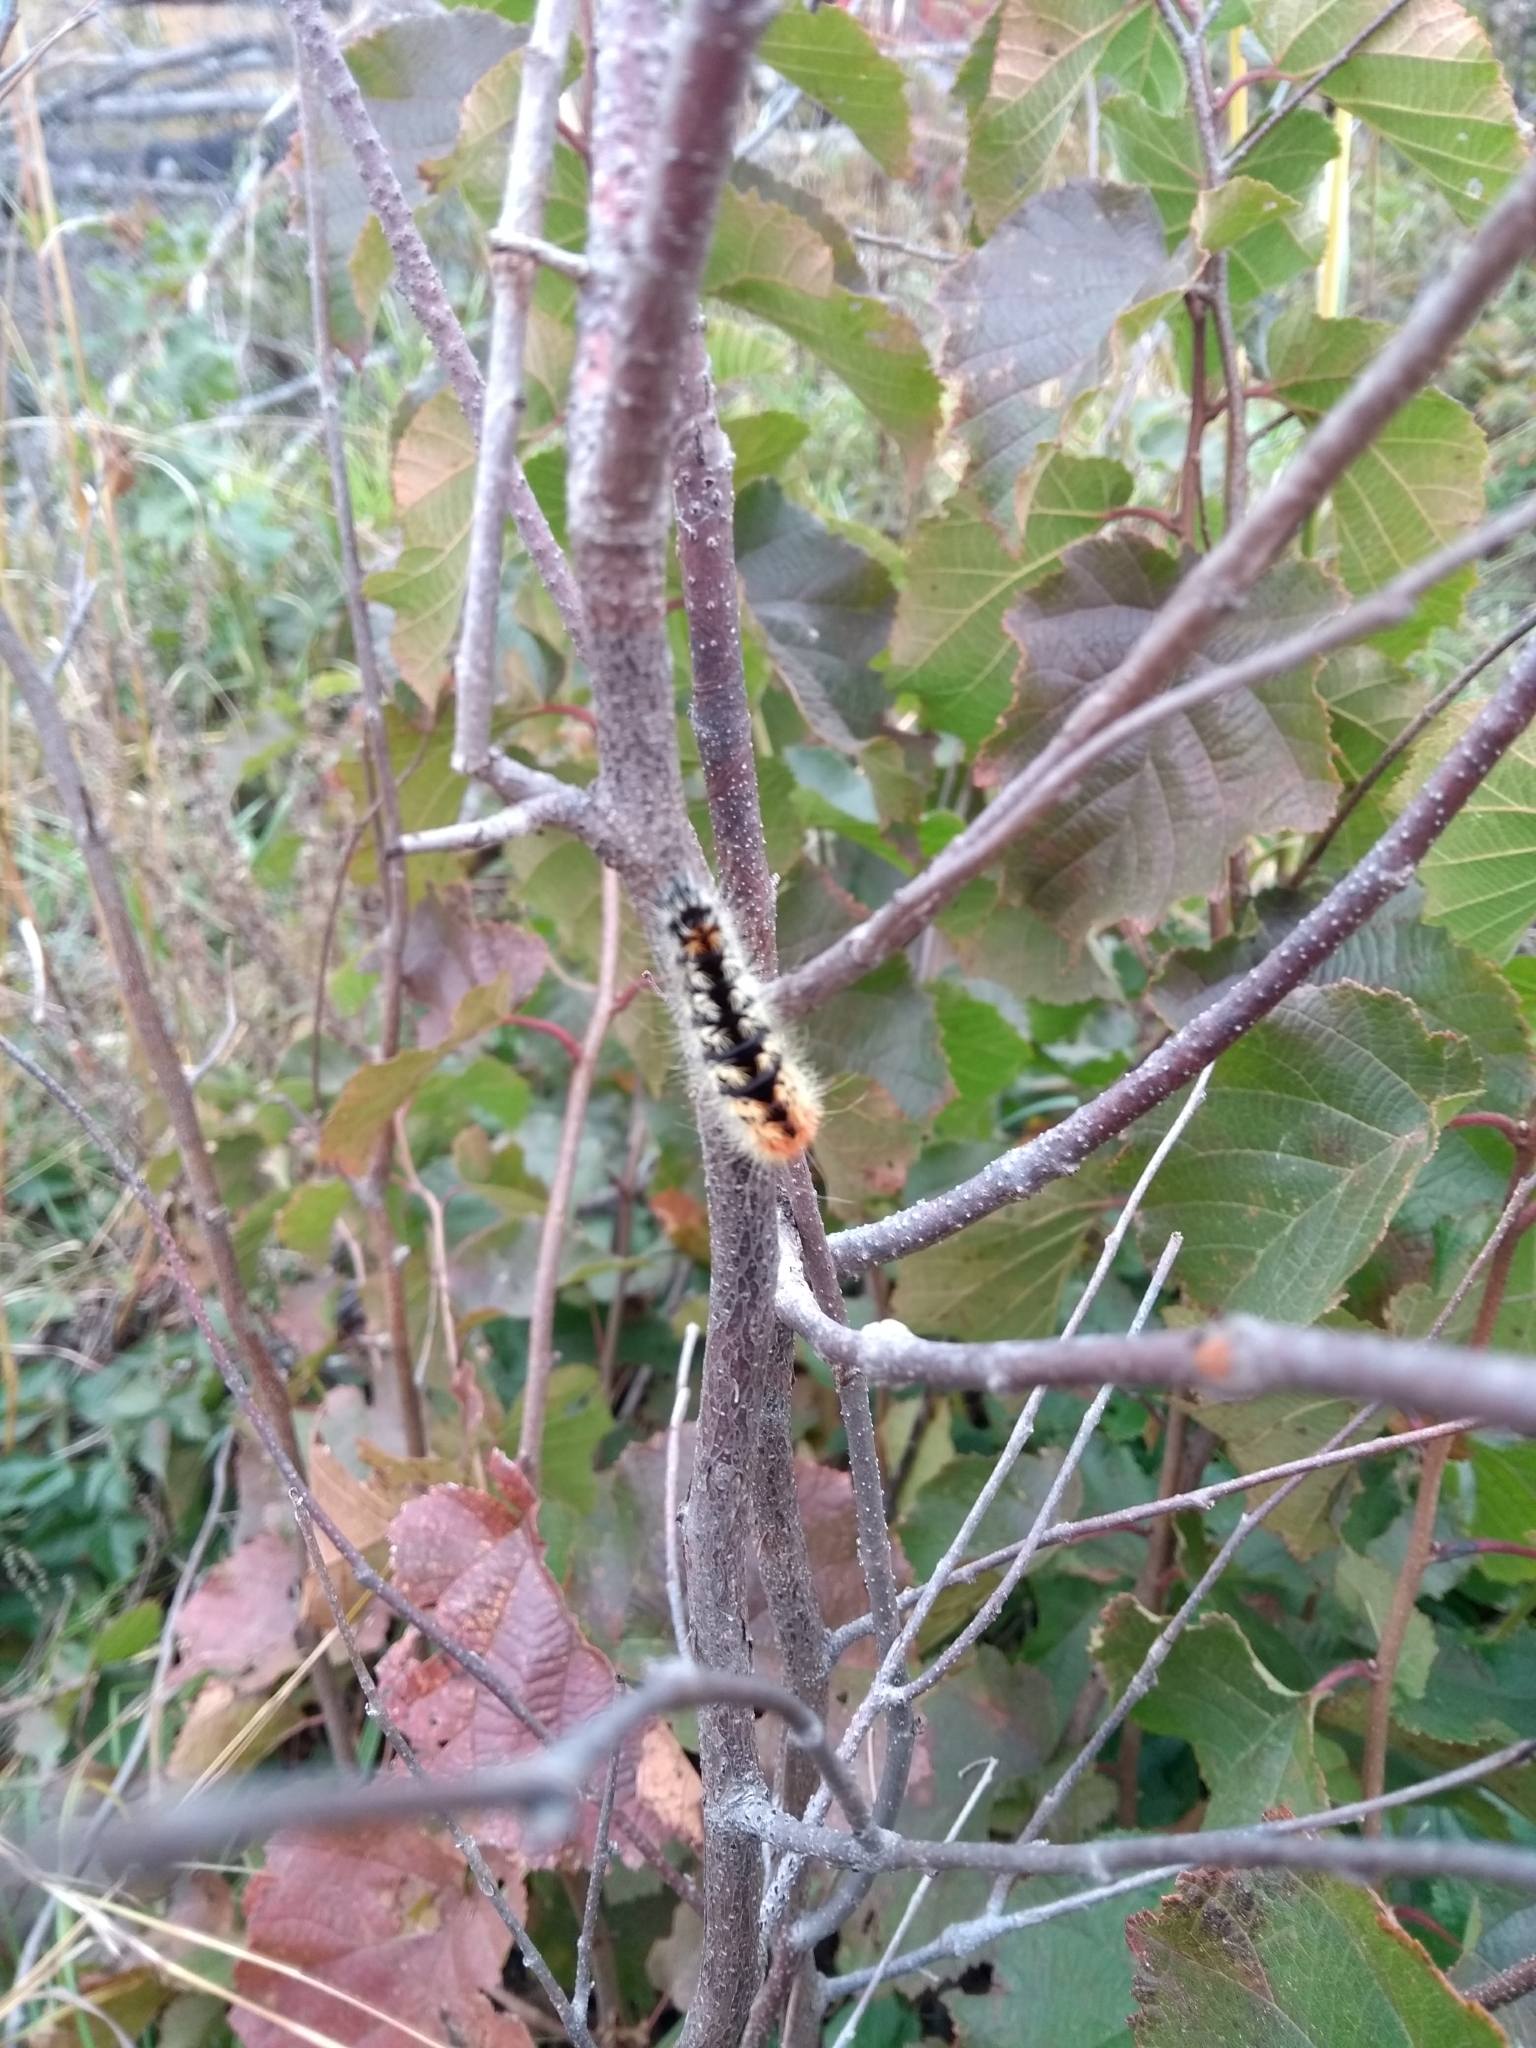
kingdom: Animalia
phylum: Arthropoda
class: Insecta
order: Lepidoptera
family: Noctuidae
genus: Acronicta
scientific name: Acronicta impressa
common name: Impressed dagger
